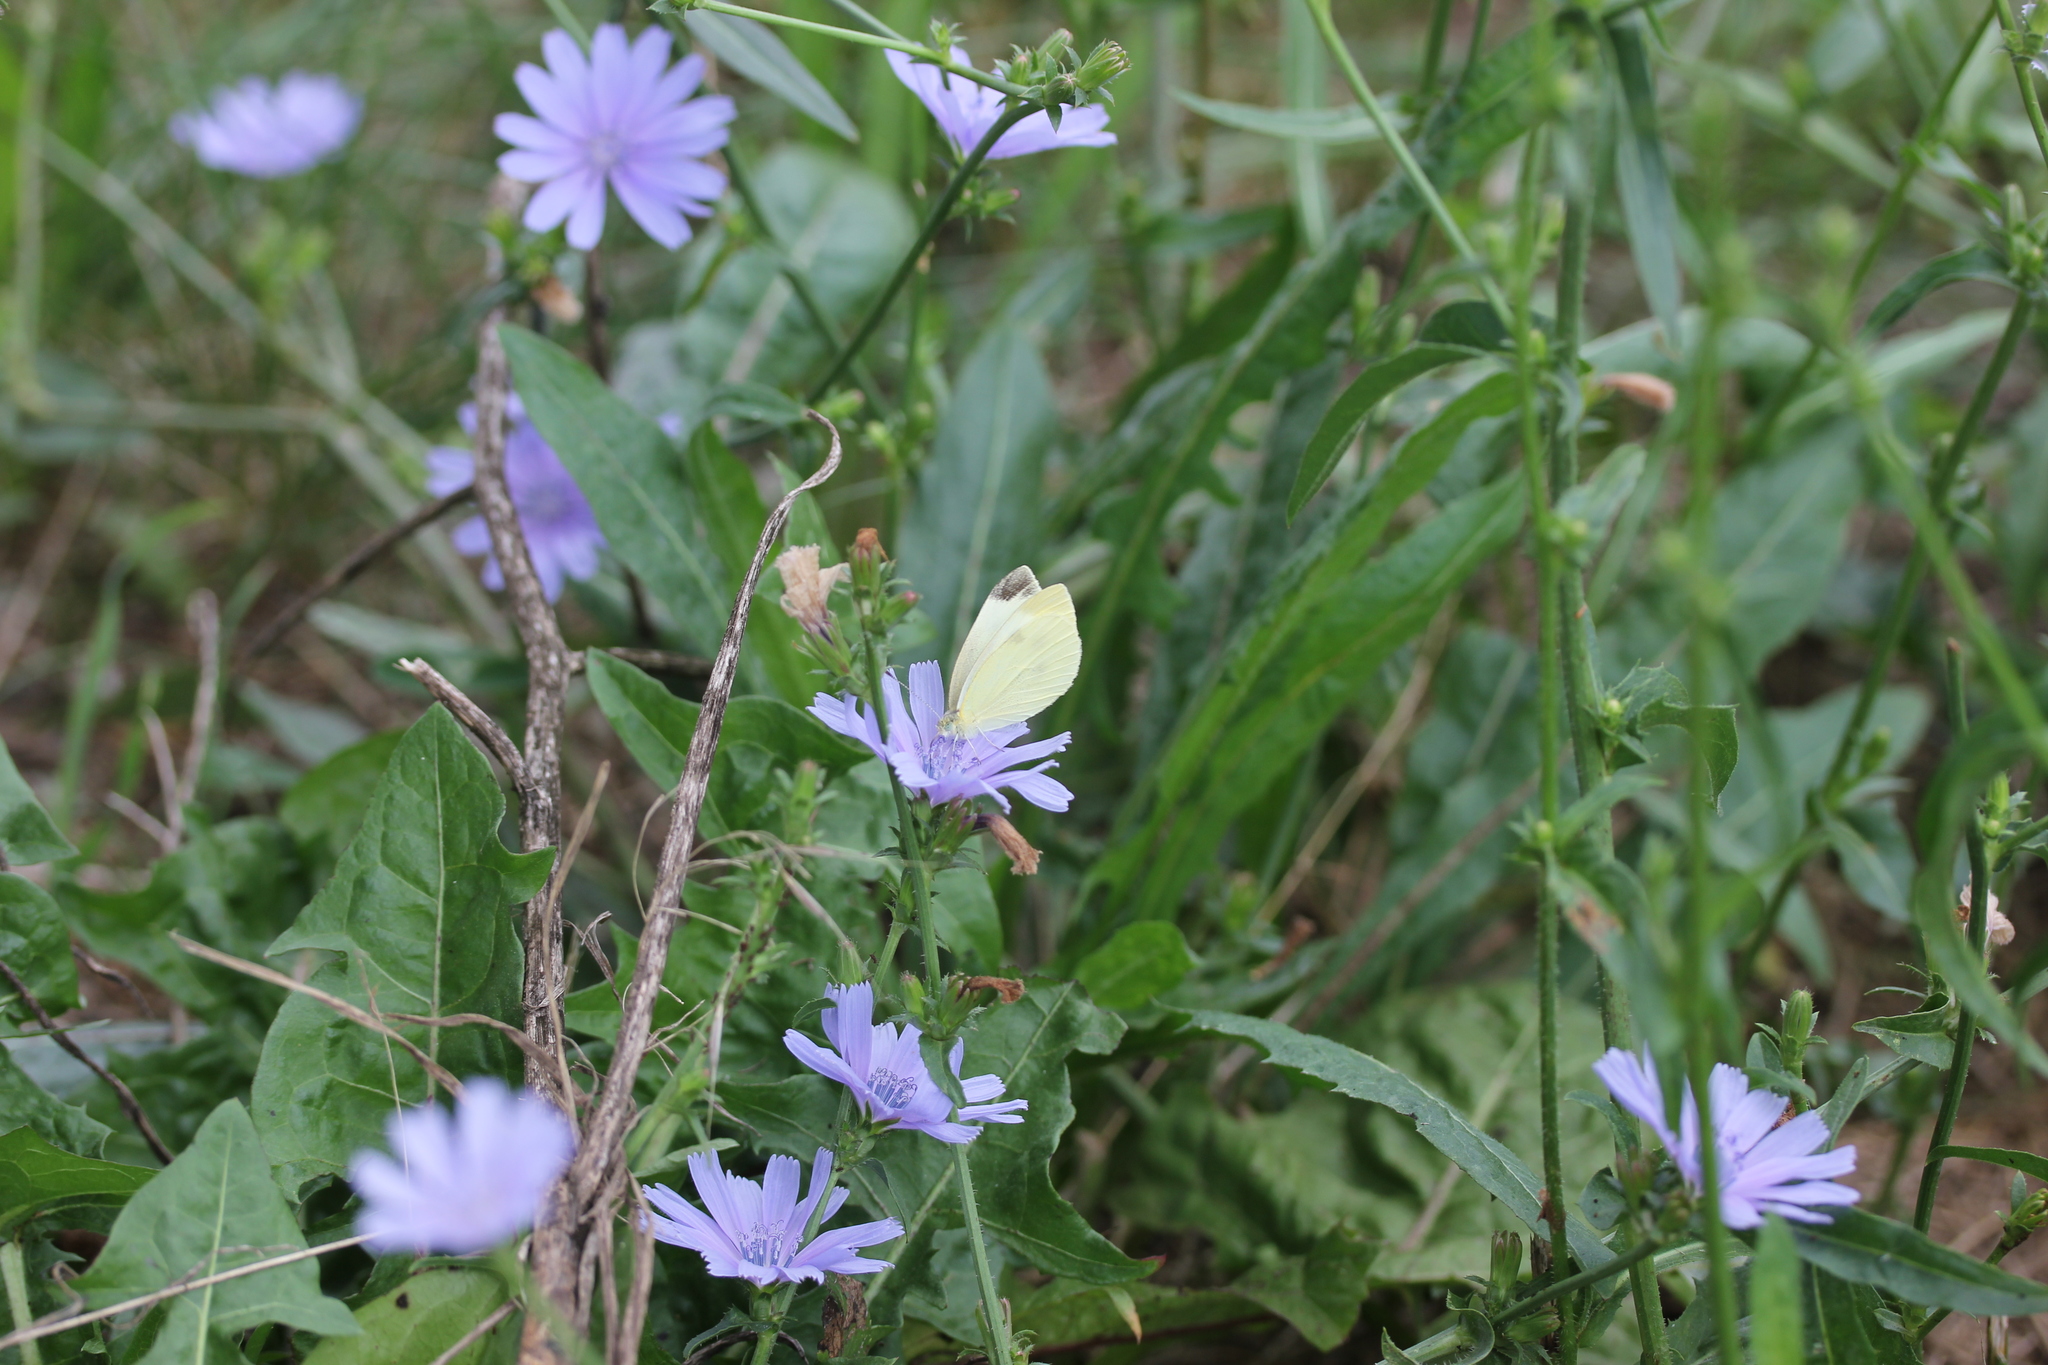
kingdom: Plantae
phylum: Tracheophyta
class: Magnoliopsida
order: Asterales
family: Asteraceae
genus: Cichorium
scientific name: Cichorium intybus
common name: Chicory
